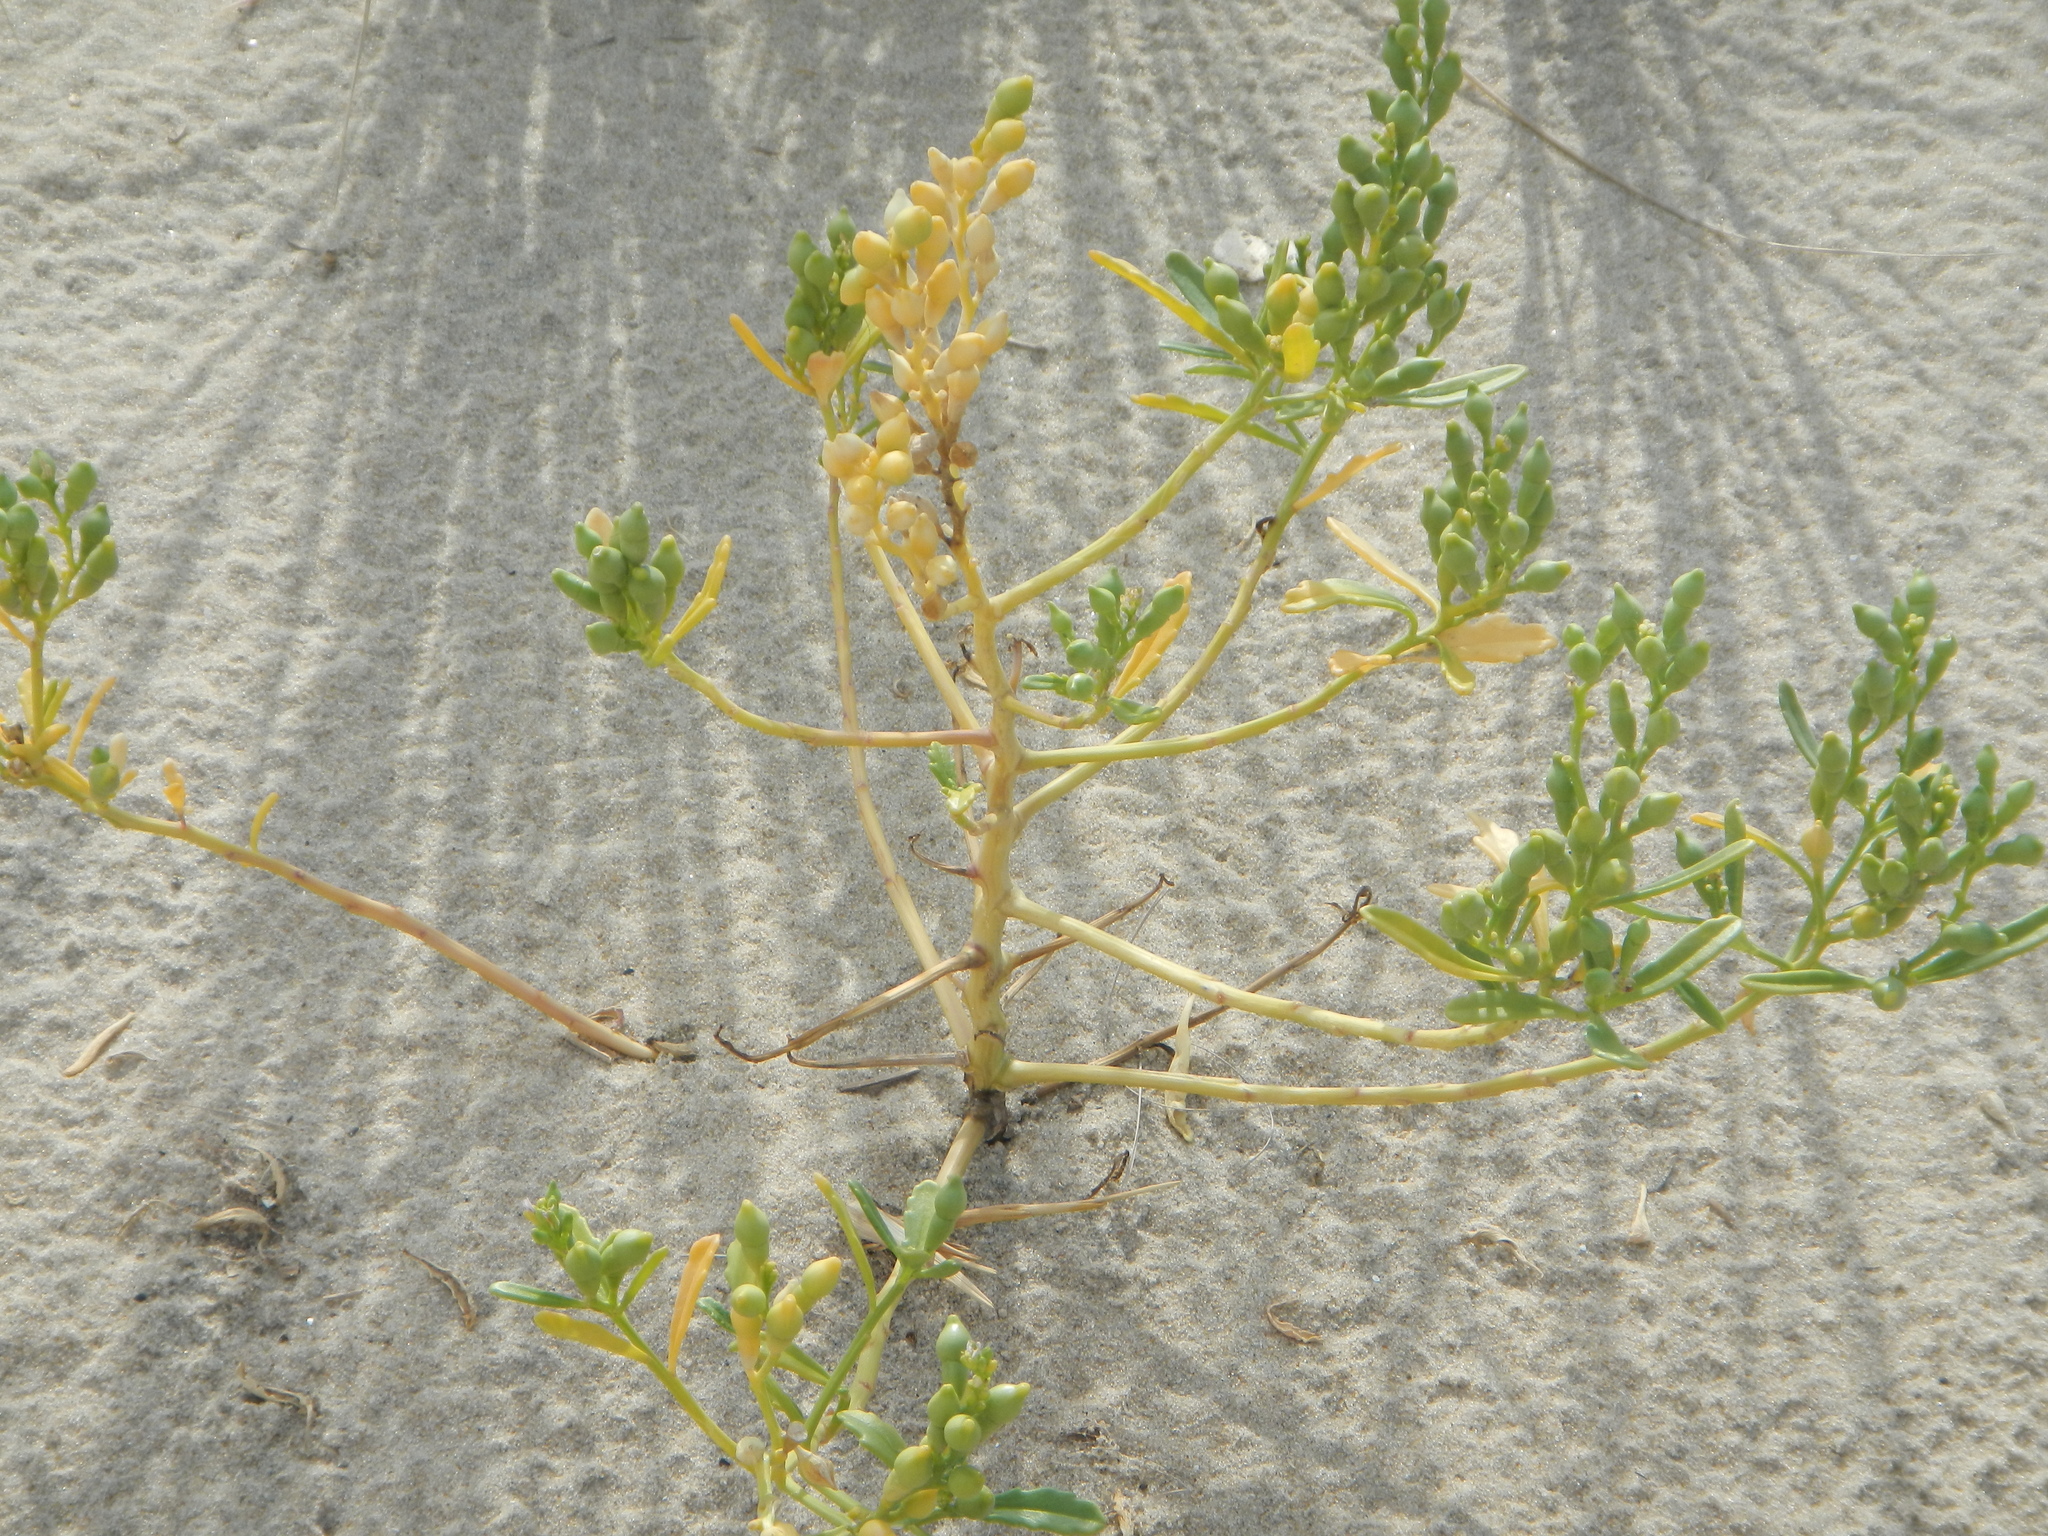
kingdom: Plantae
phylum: Tracheophyta
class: Magnoliopsida
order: Brassicales
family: Brassicaceae
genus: Cakile
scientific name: Cakile edentula
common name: American sea rocket
